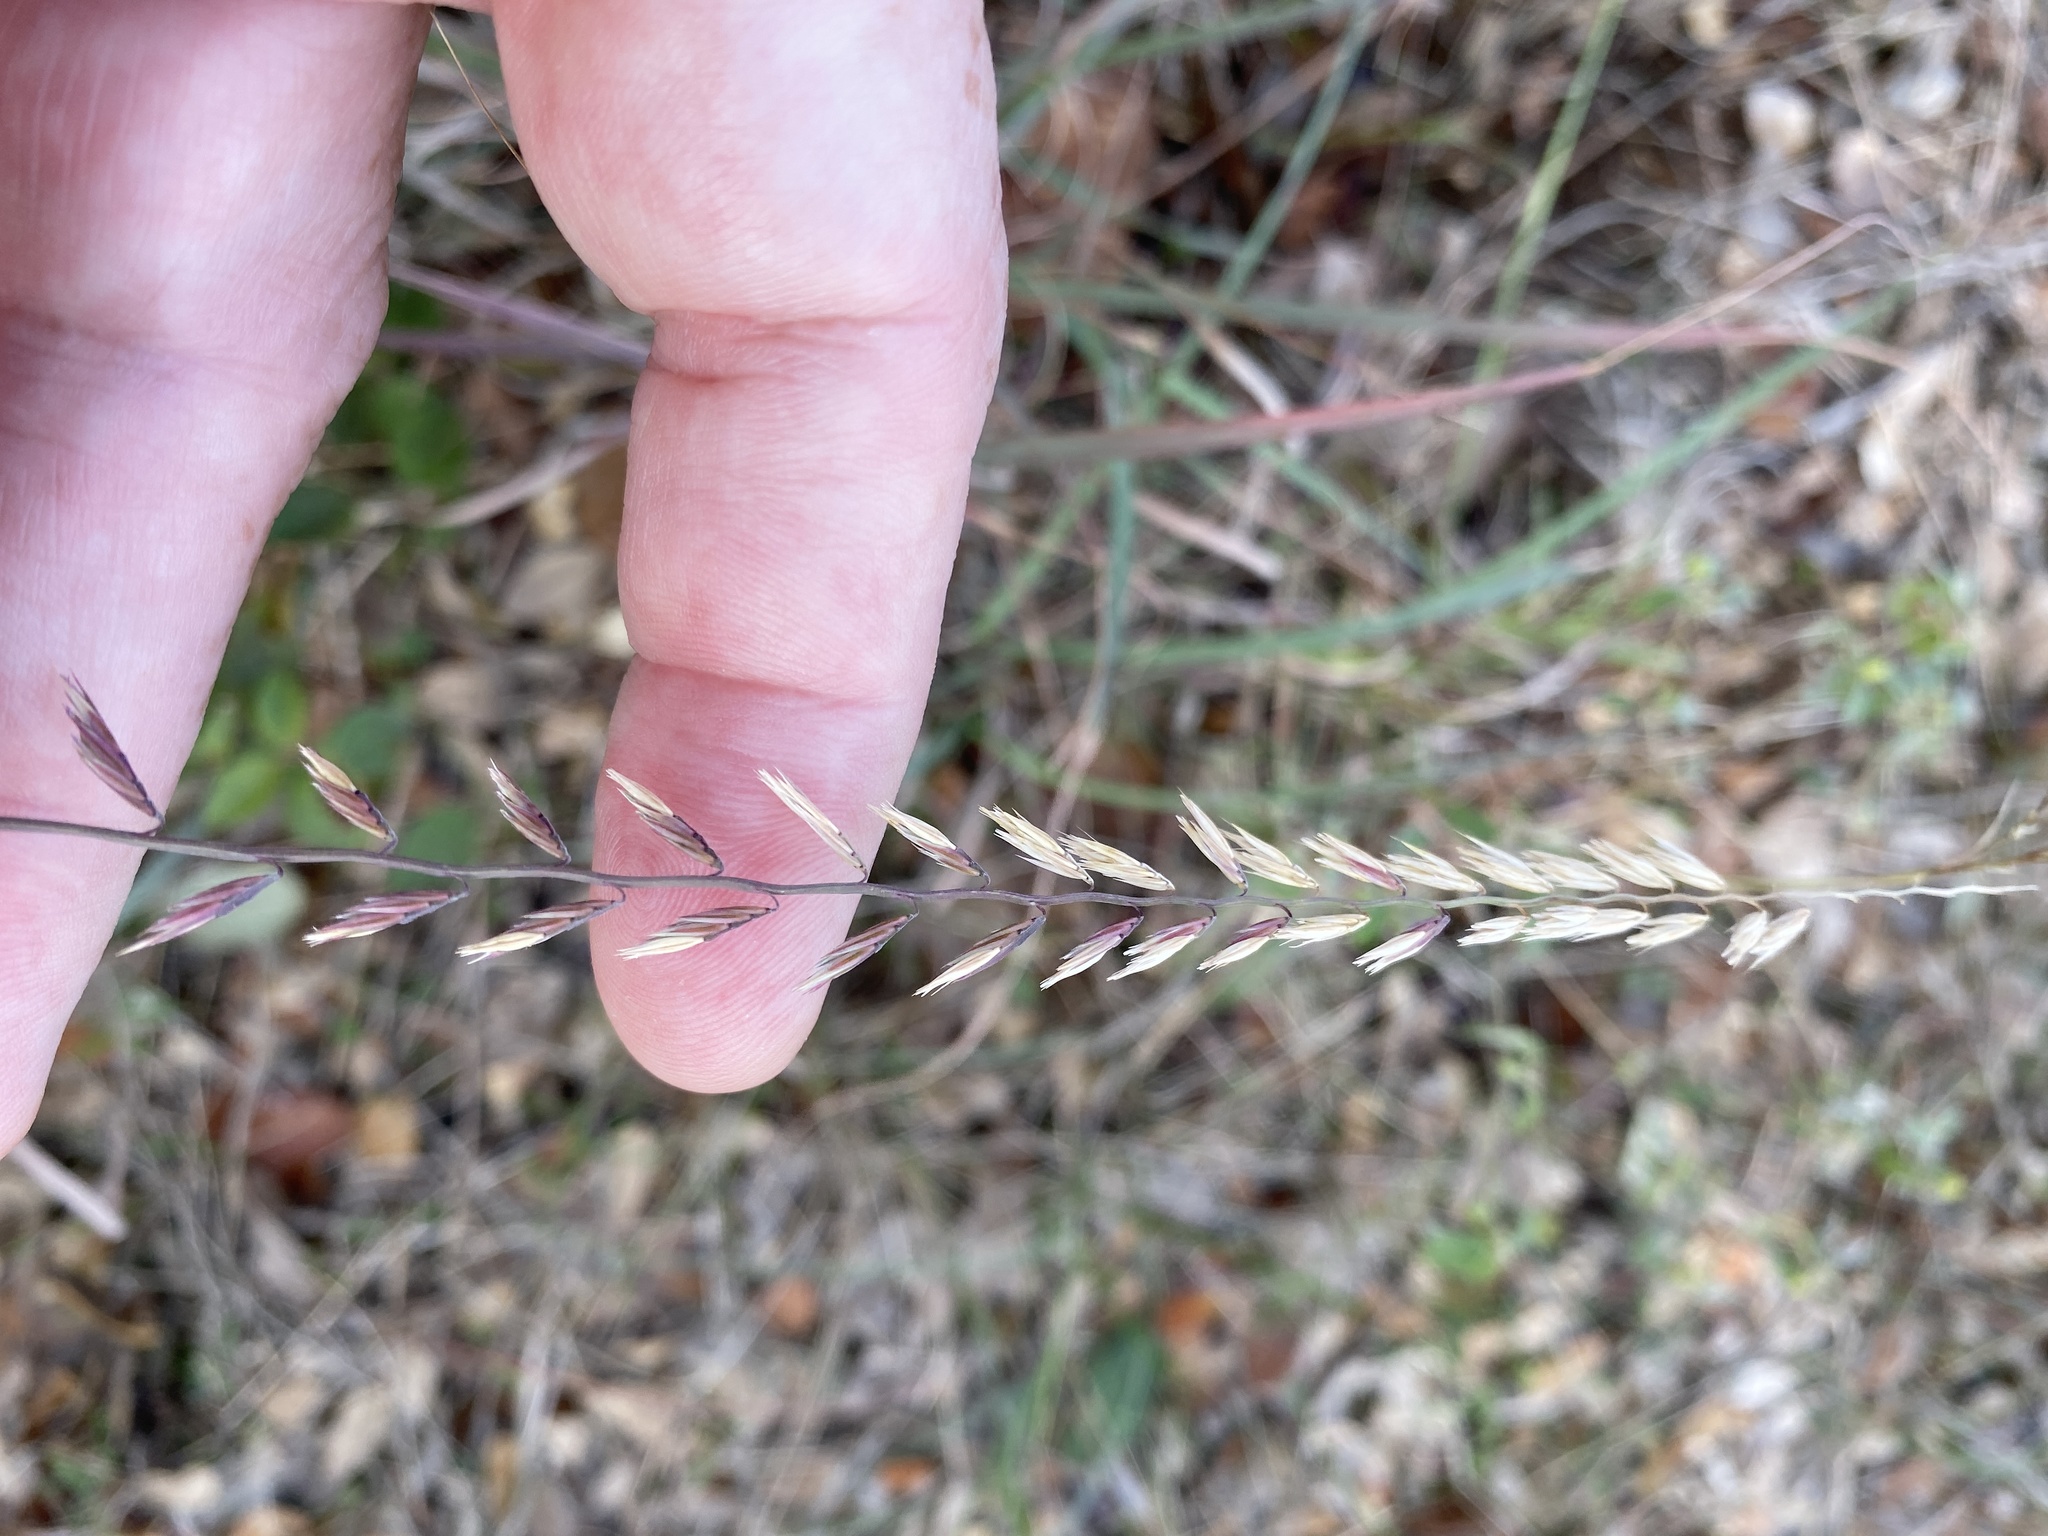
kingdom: Plantae
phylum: Tracheophyta
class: Liliopsida
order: Poales
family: Poaceae
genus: Bouteloua
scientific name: Bouteloua curtipendula
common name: Side-oats grama
